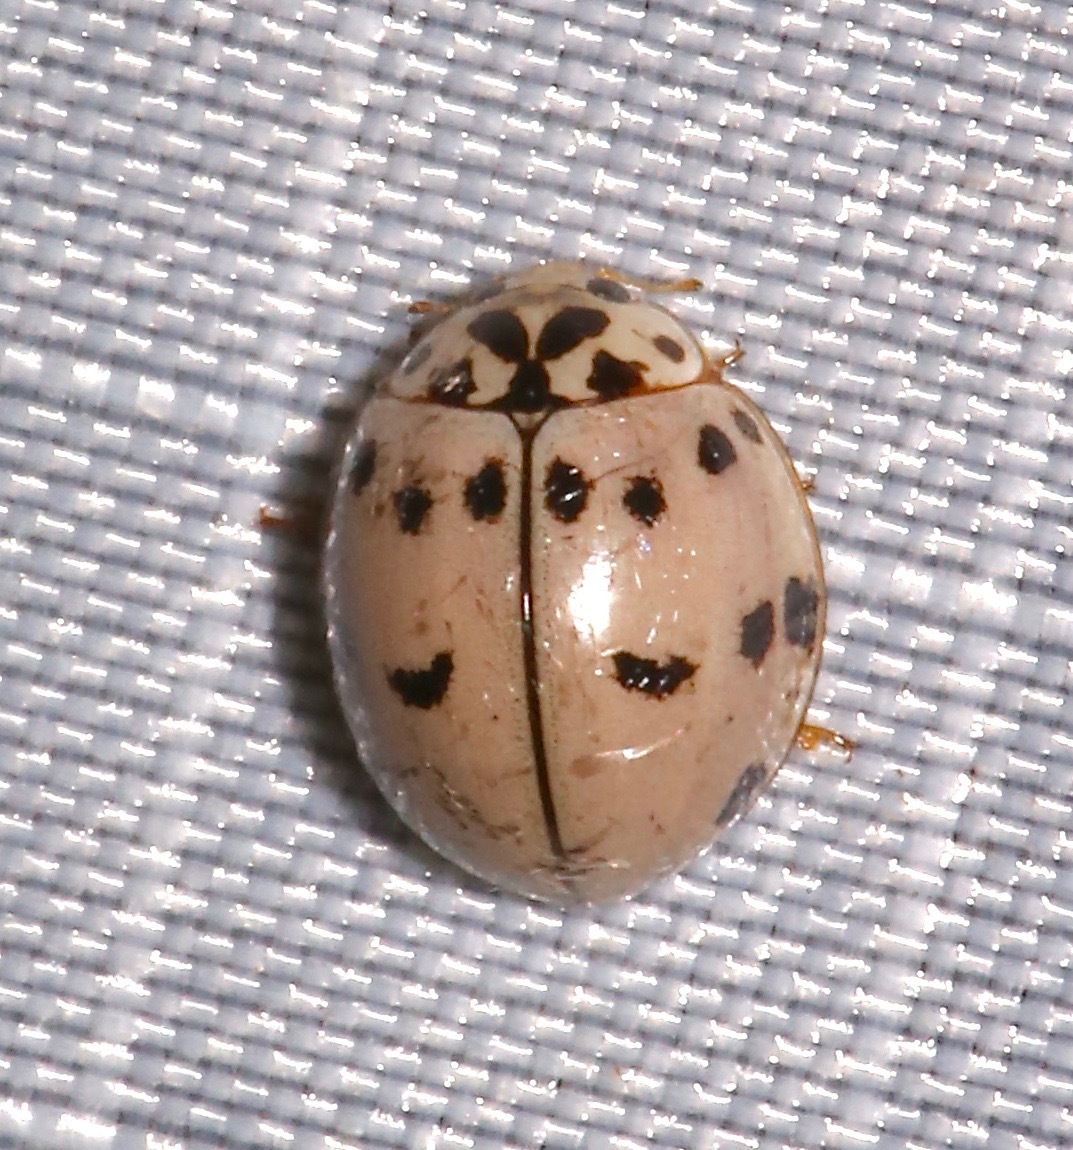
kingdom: Animalia
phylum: Arthropoda
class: Insecta
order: Coleoptera
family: Coccinellidae
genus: Olla
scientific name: Olla v-nigrum
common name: Ashy gray lady beetle
